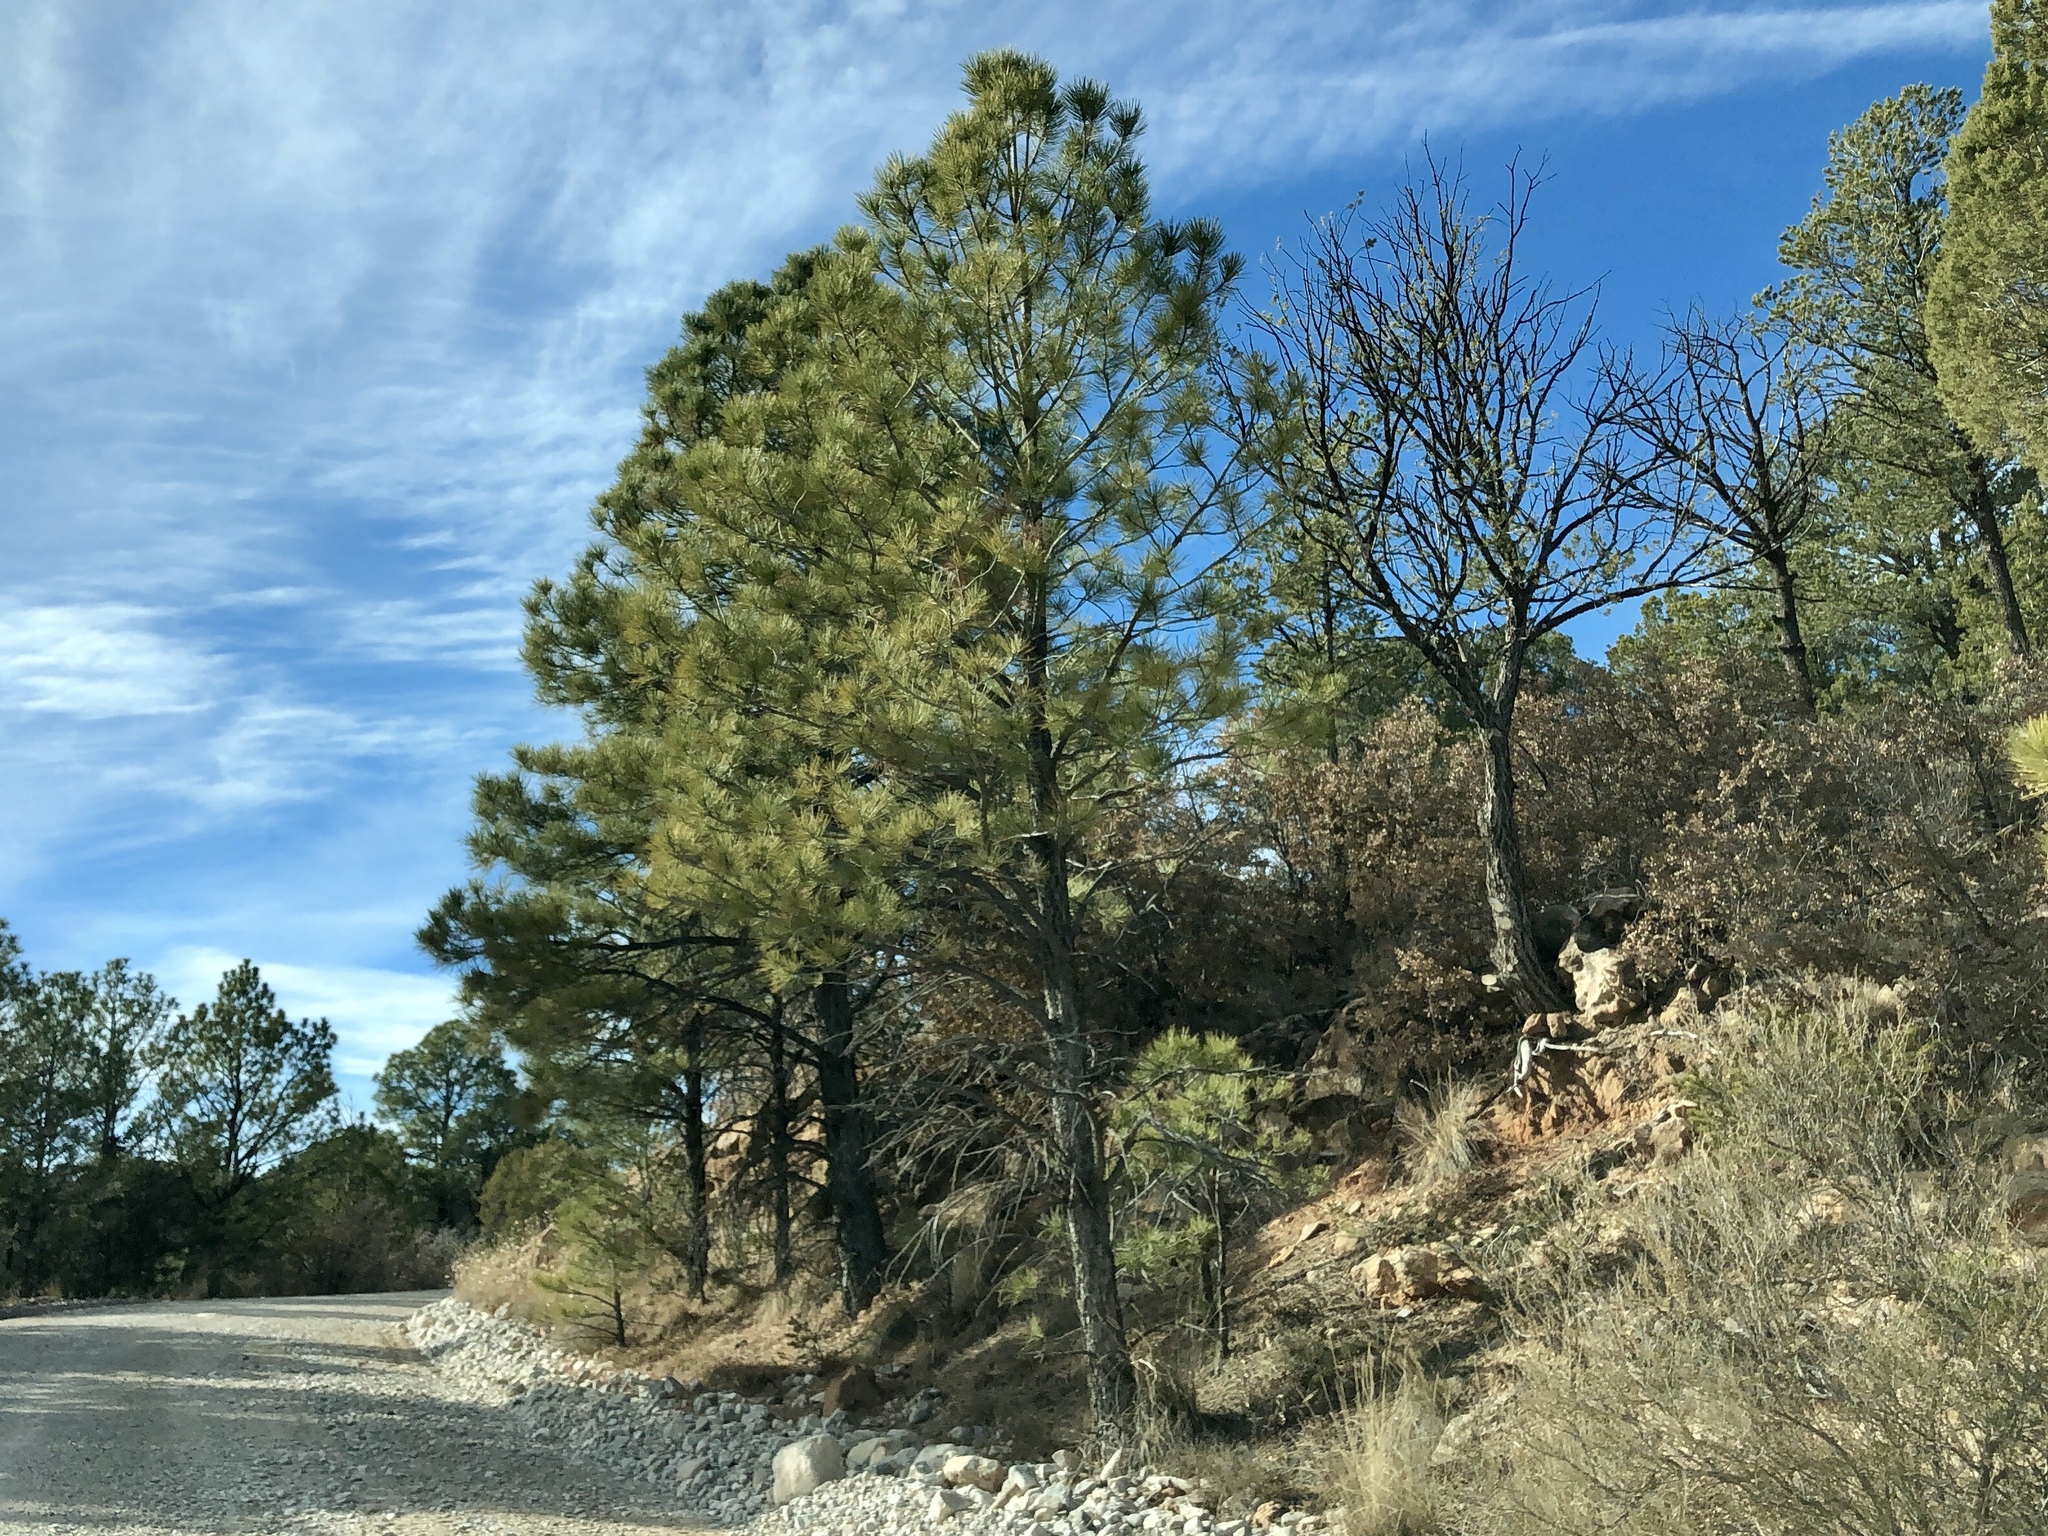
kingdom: Plantae
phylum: Tracheophyta
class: Pinopsida
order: Pinales
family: Pinaceae
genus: Pinus
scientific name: Pinus ponderosa
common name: Western yellow-pine
